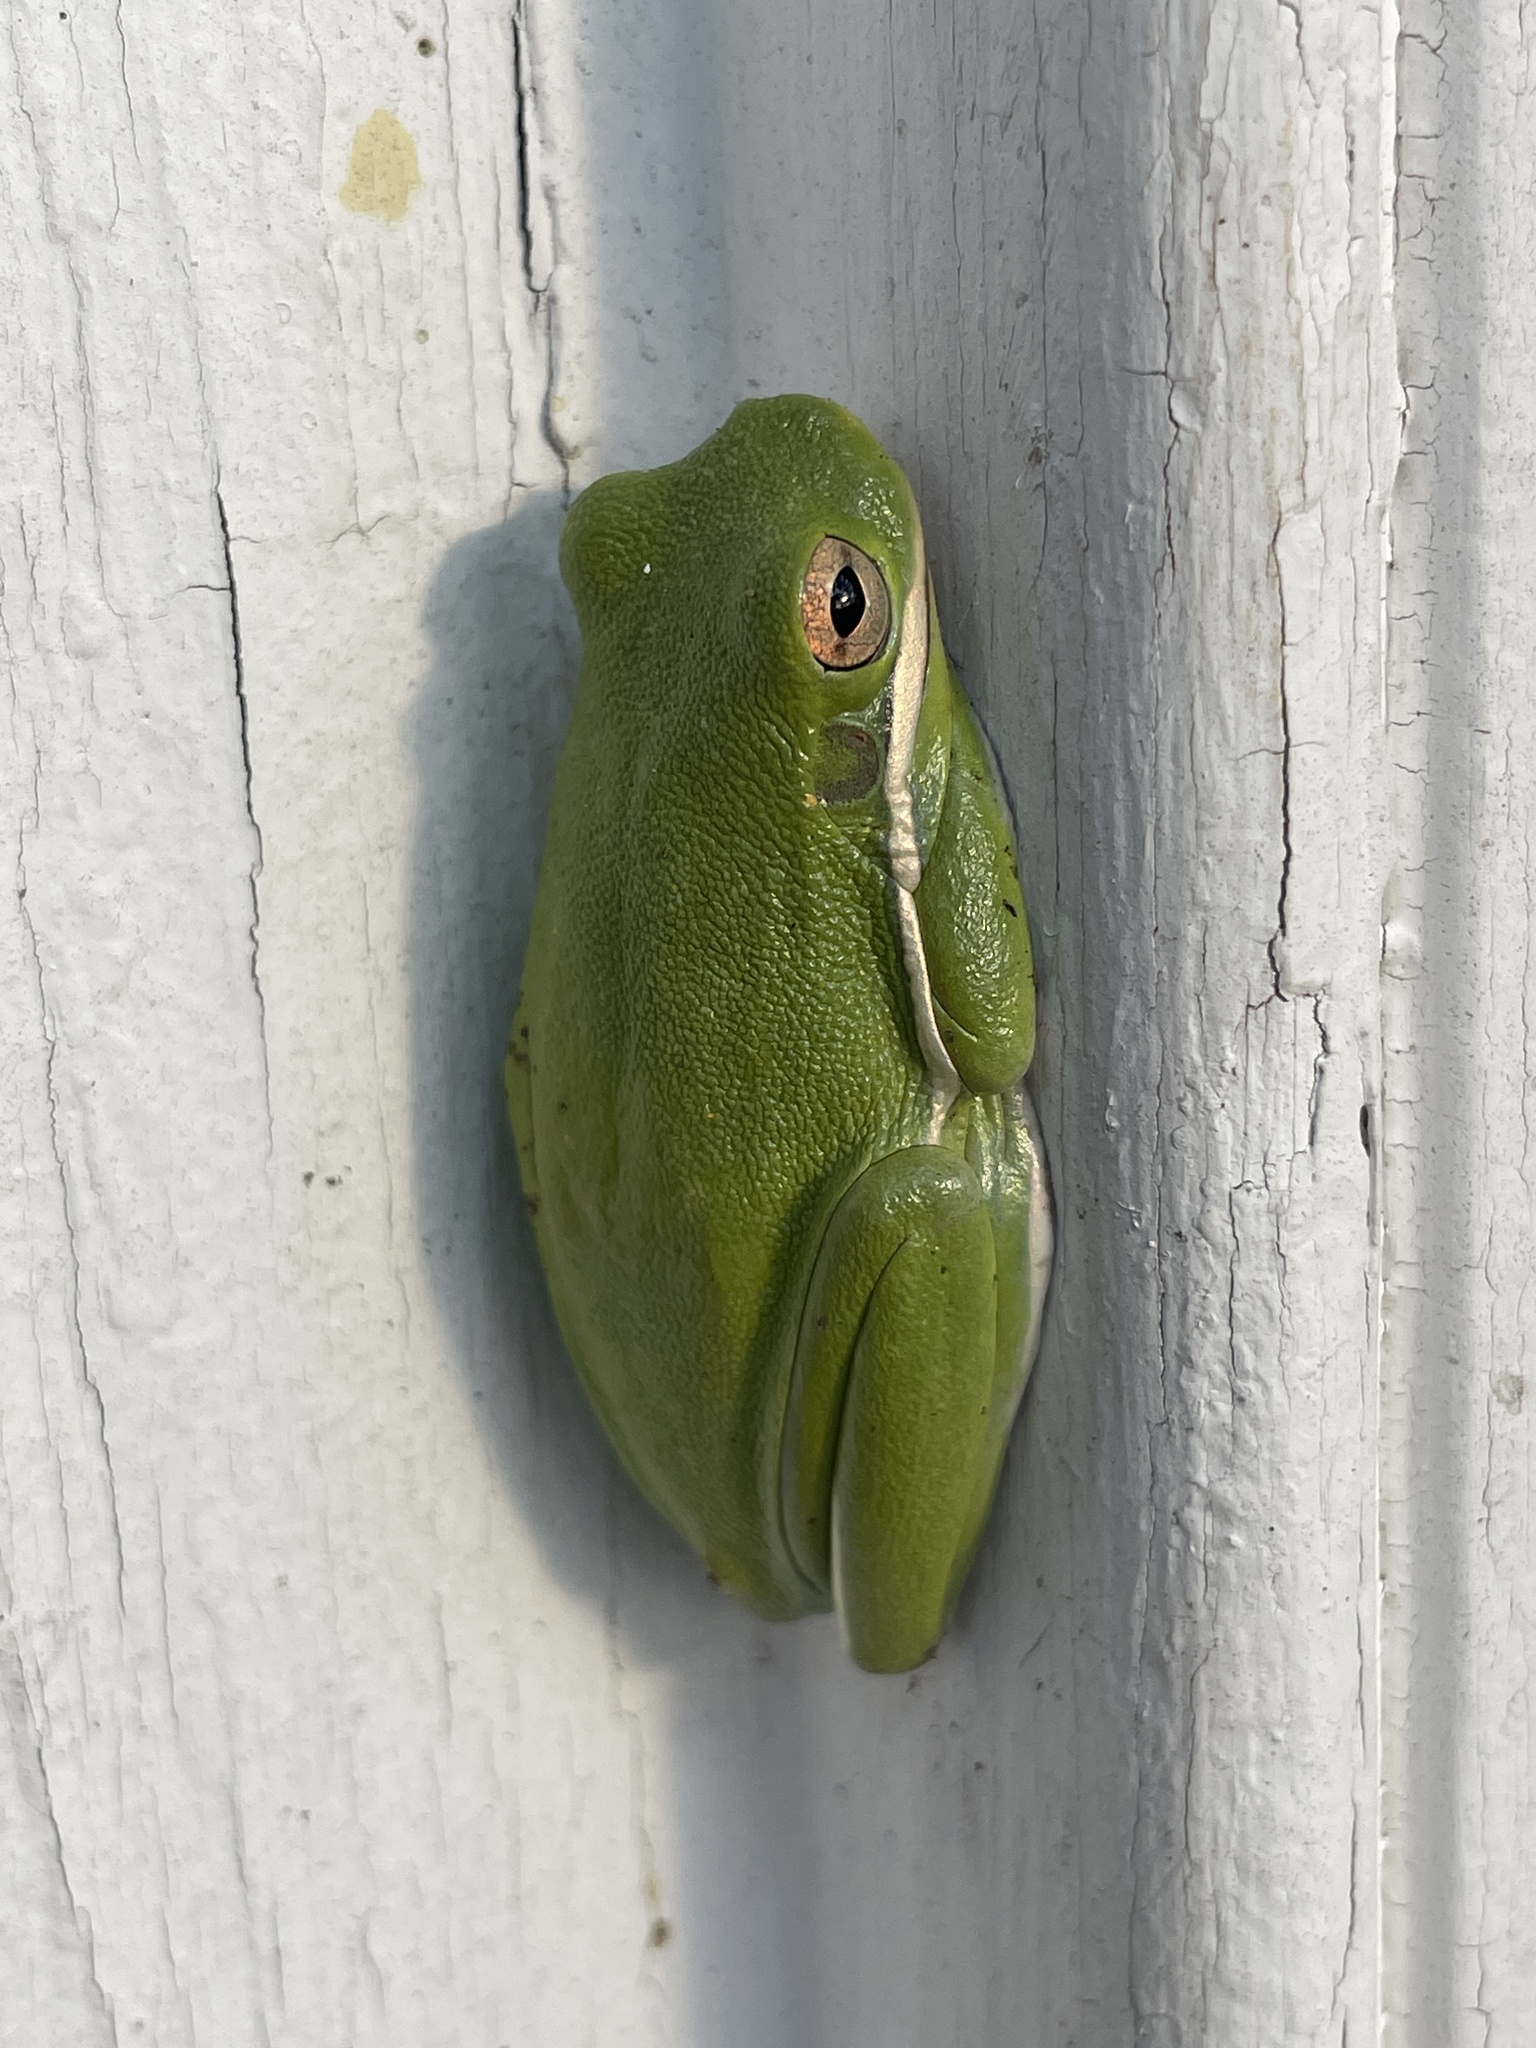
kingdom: Animalia
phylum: Chordata
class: Amphibia
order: Anura
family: Hylidae
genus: Dryophytes
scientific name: Dryophytes cinereus
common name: Green treefrog
